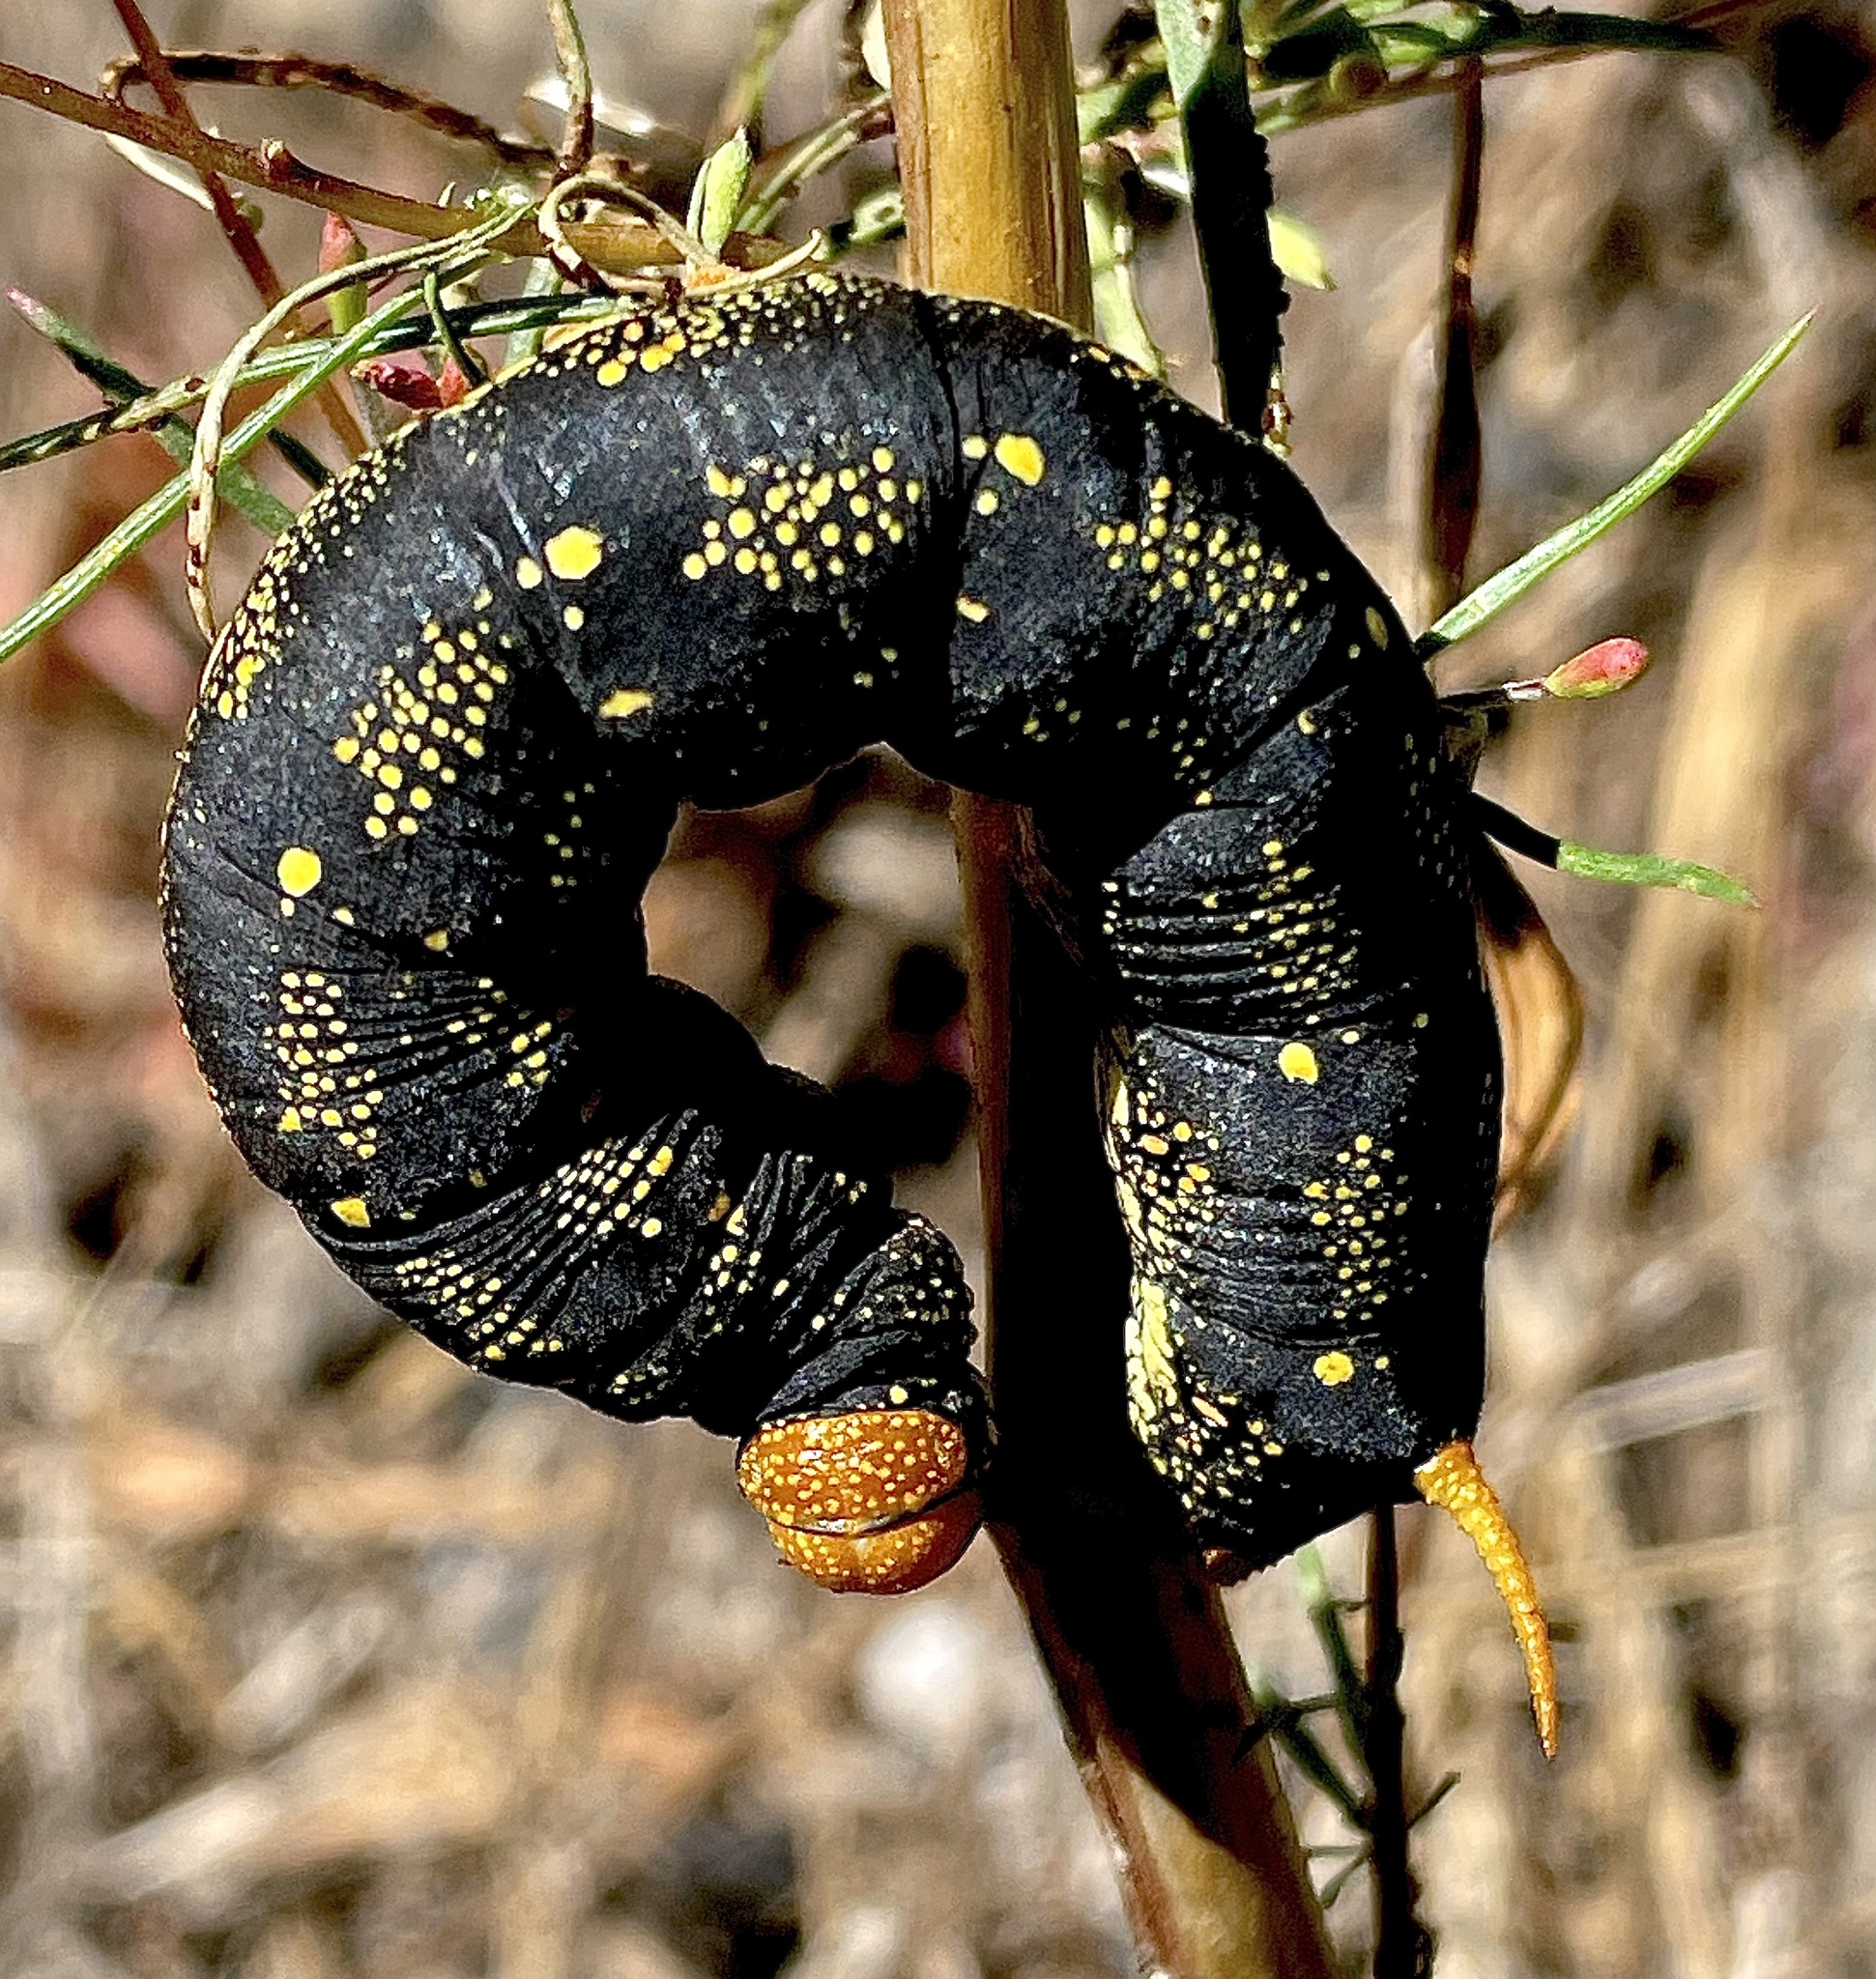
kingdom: Animalia
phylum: Arthropoda
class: Insecta
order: Lepidoptera
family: Sphingidae
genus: Hyles
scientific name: Hyles lineata
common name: White-lined sphinx
